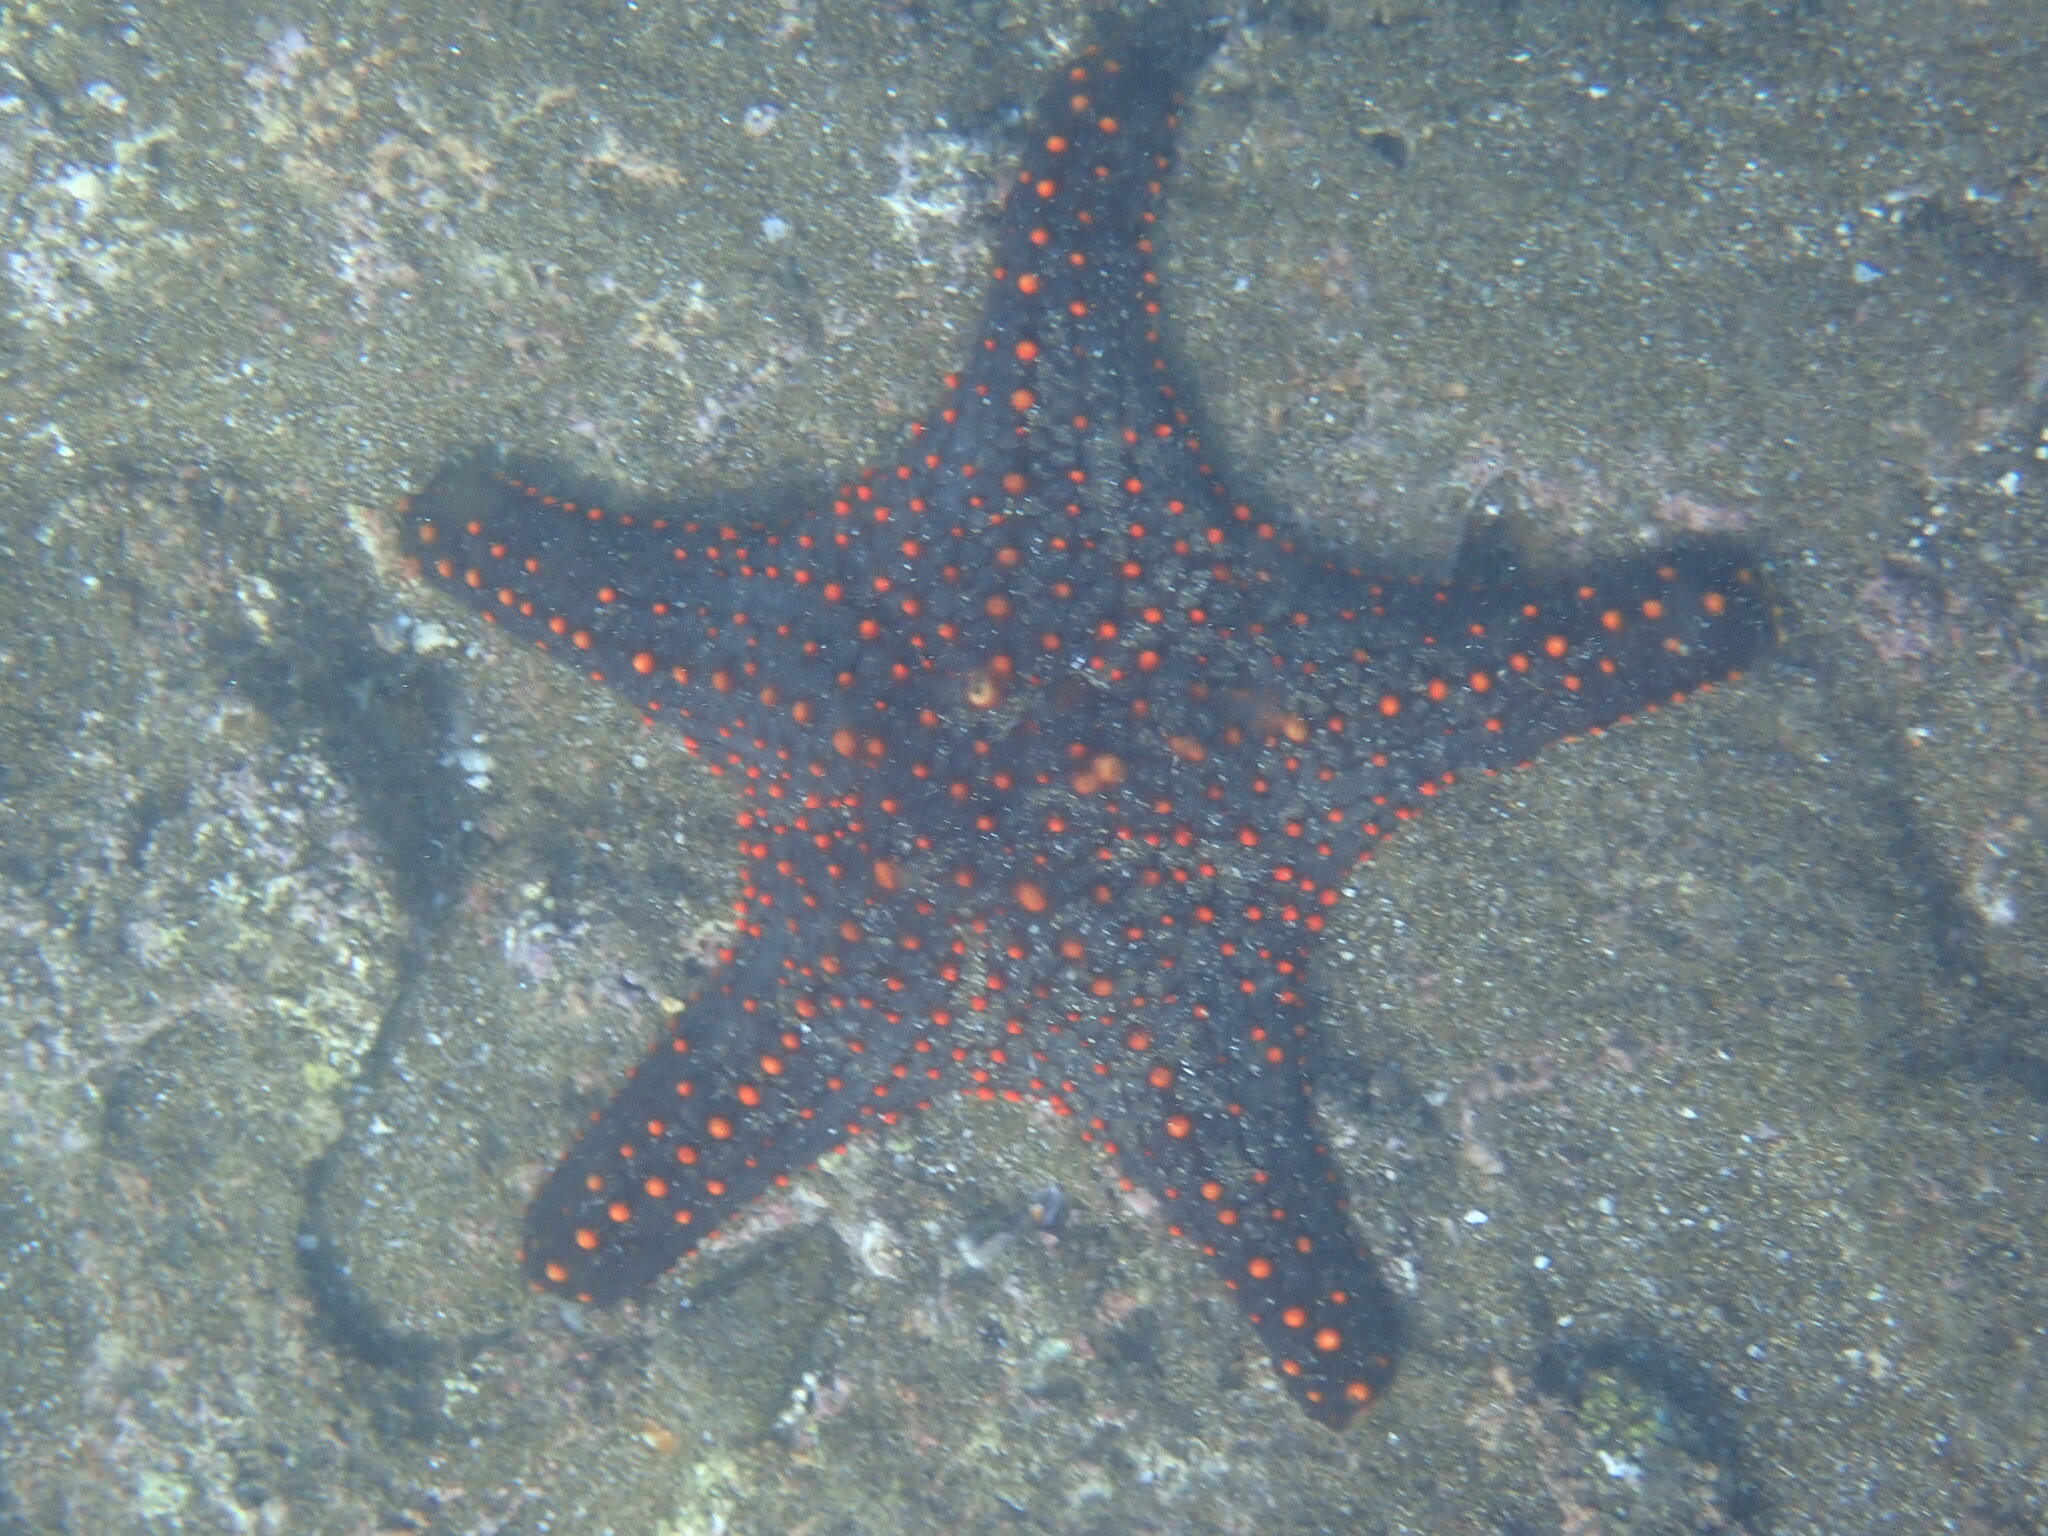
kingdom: Animalia
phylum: Echinodermata
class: Asteroidea
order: Valvatida
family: Oreasteridae
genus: Pentaceraster
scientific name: Pentaceraster cumingi
